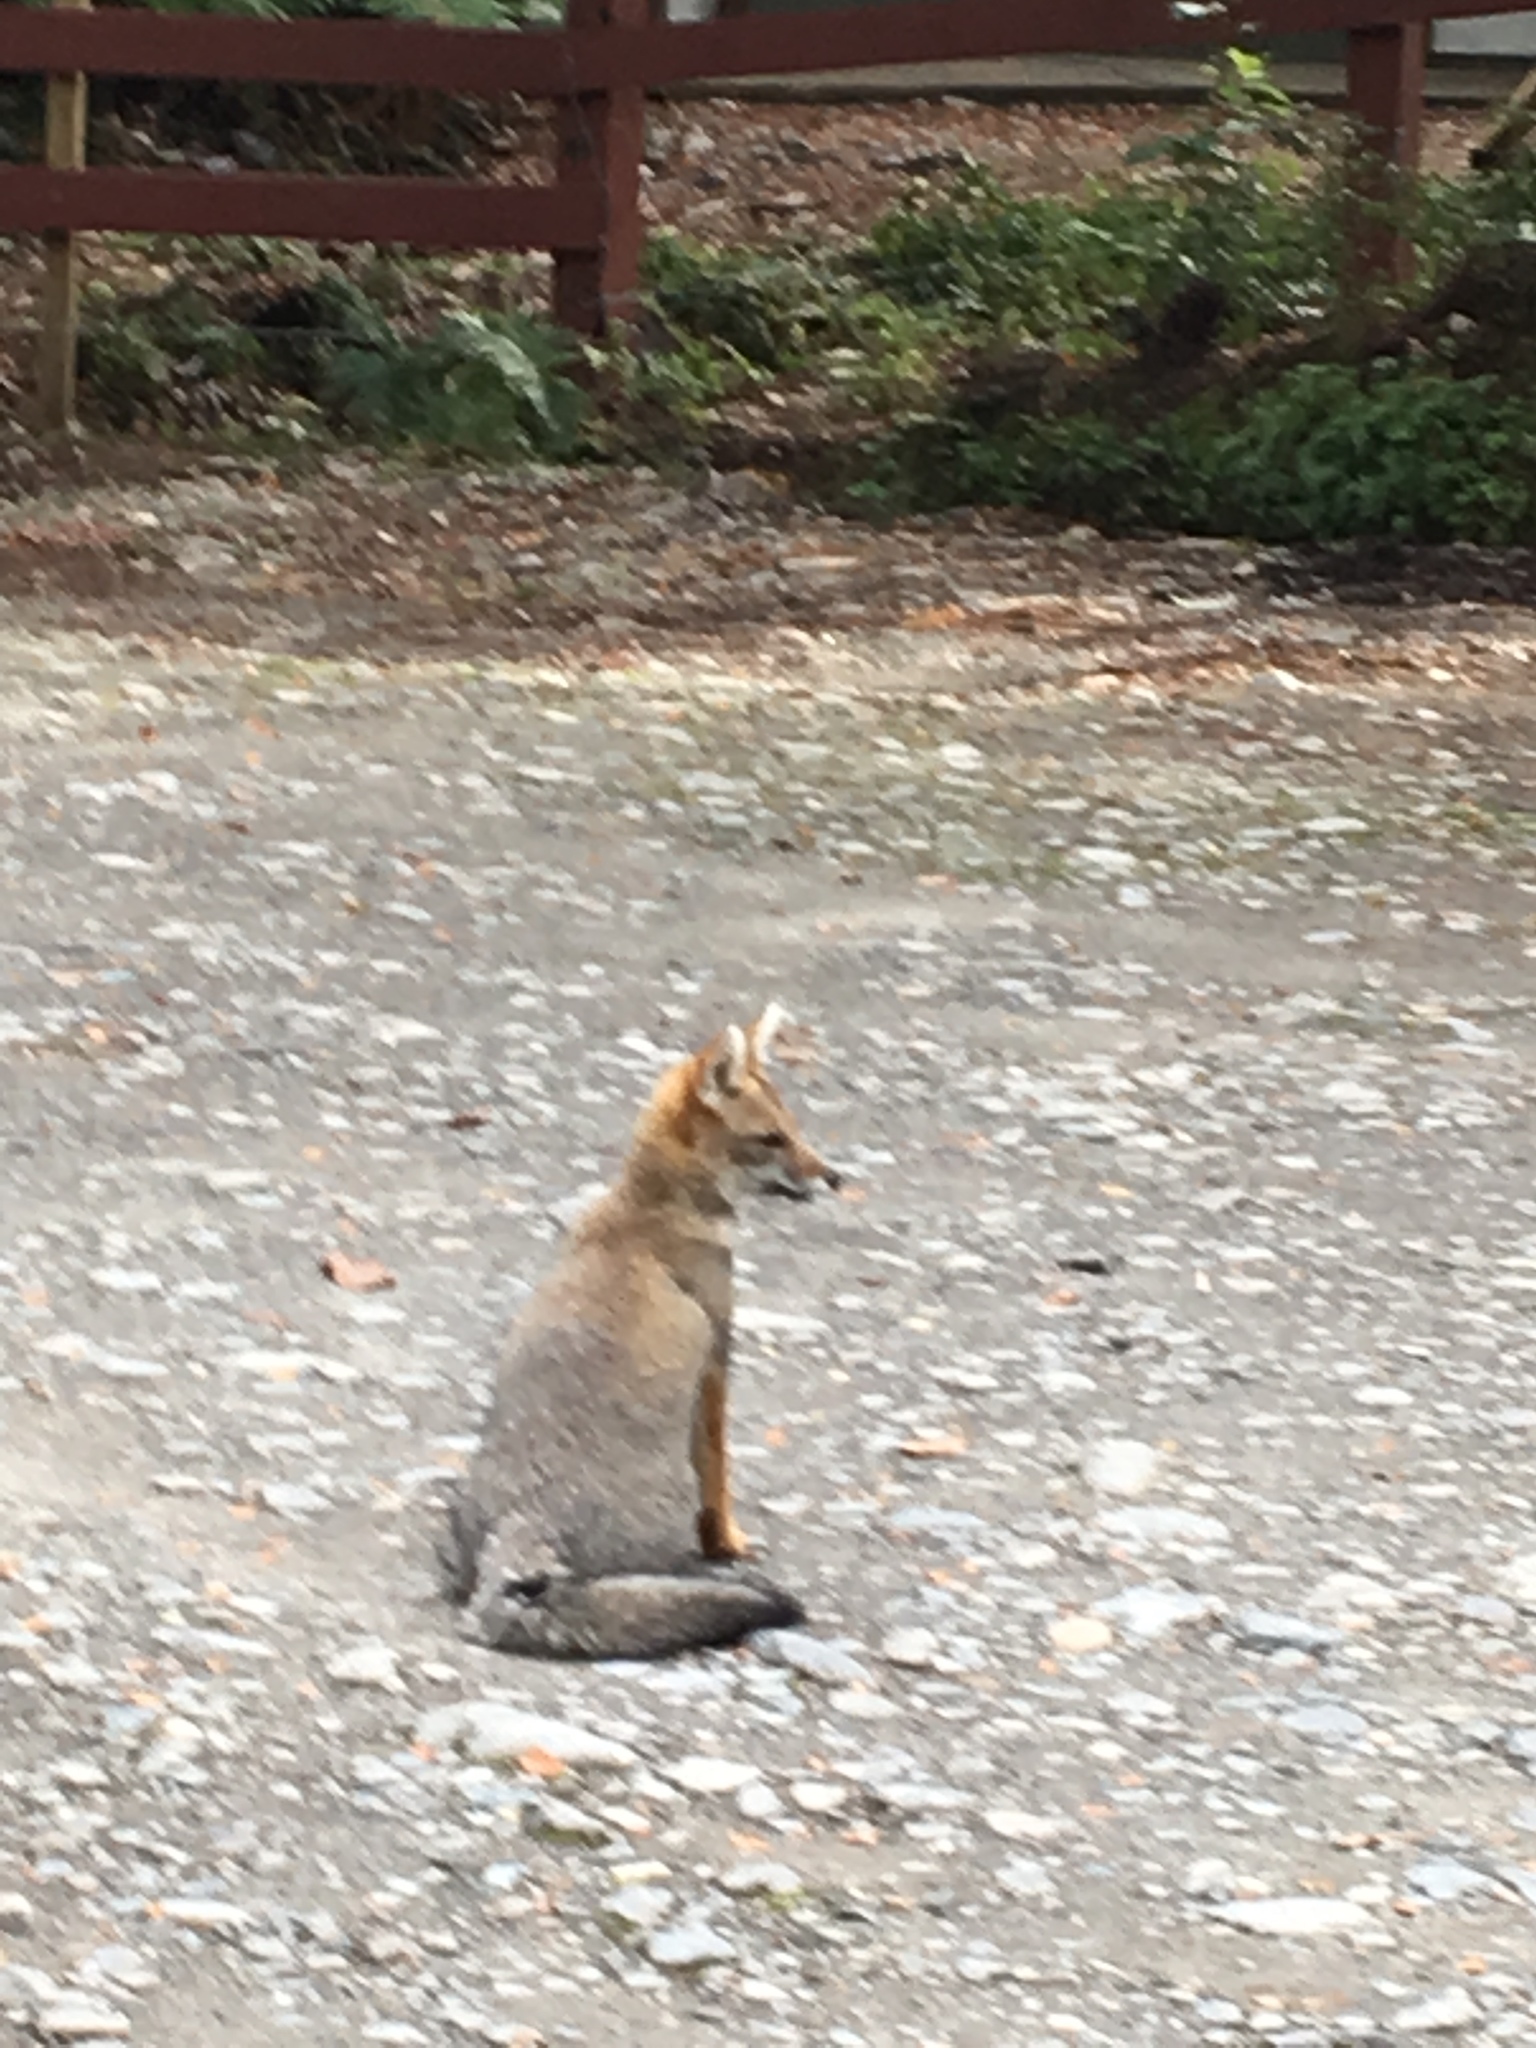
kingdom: Animalia
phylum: Chordata
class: Mammalia
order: Carnivora
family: Canidae
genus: Lycalopex
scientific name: Lycalopex gymnocercus
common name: Pampas fox
